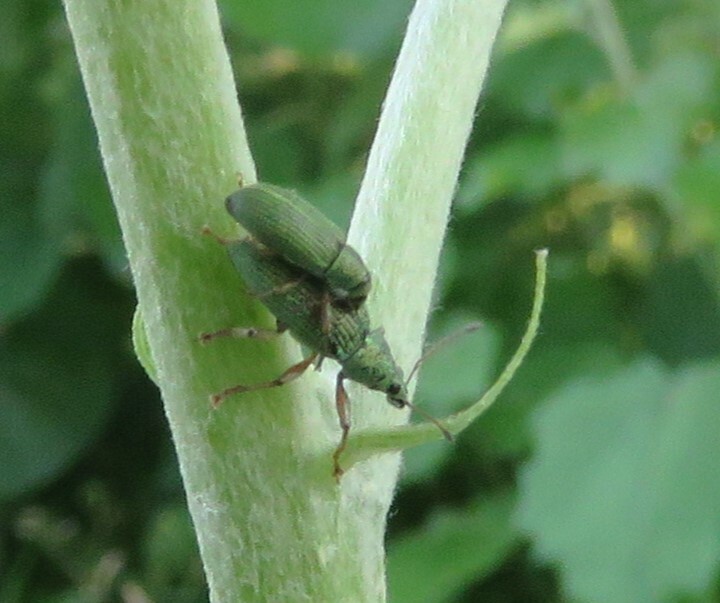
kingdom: Animalia
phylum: Arthropoda
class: Insecta
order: Coleoptera
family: Curculionidae
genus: Polydrusus
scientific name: Polydrusus formosus
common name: Weevil
